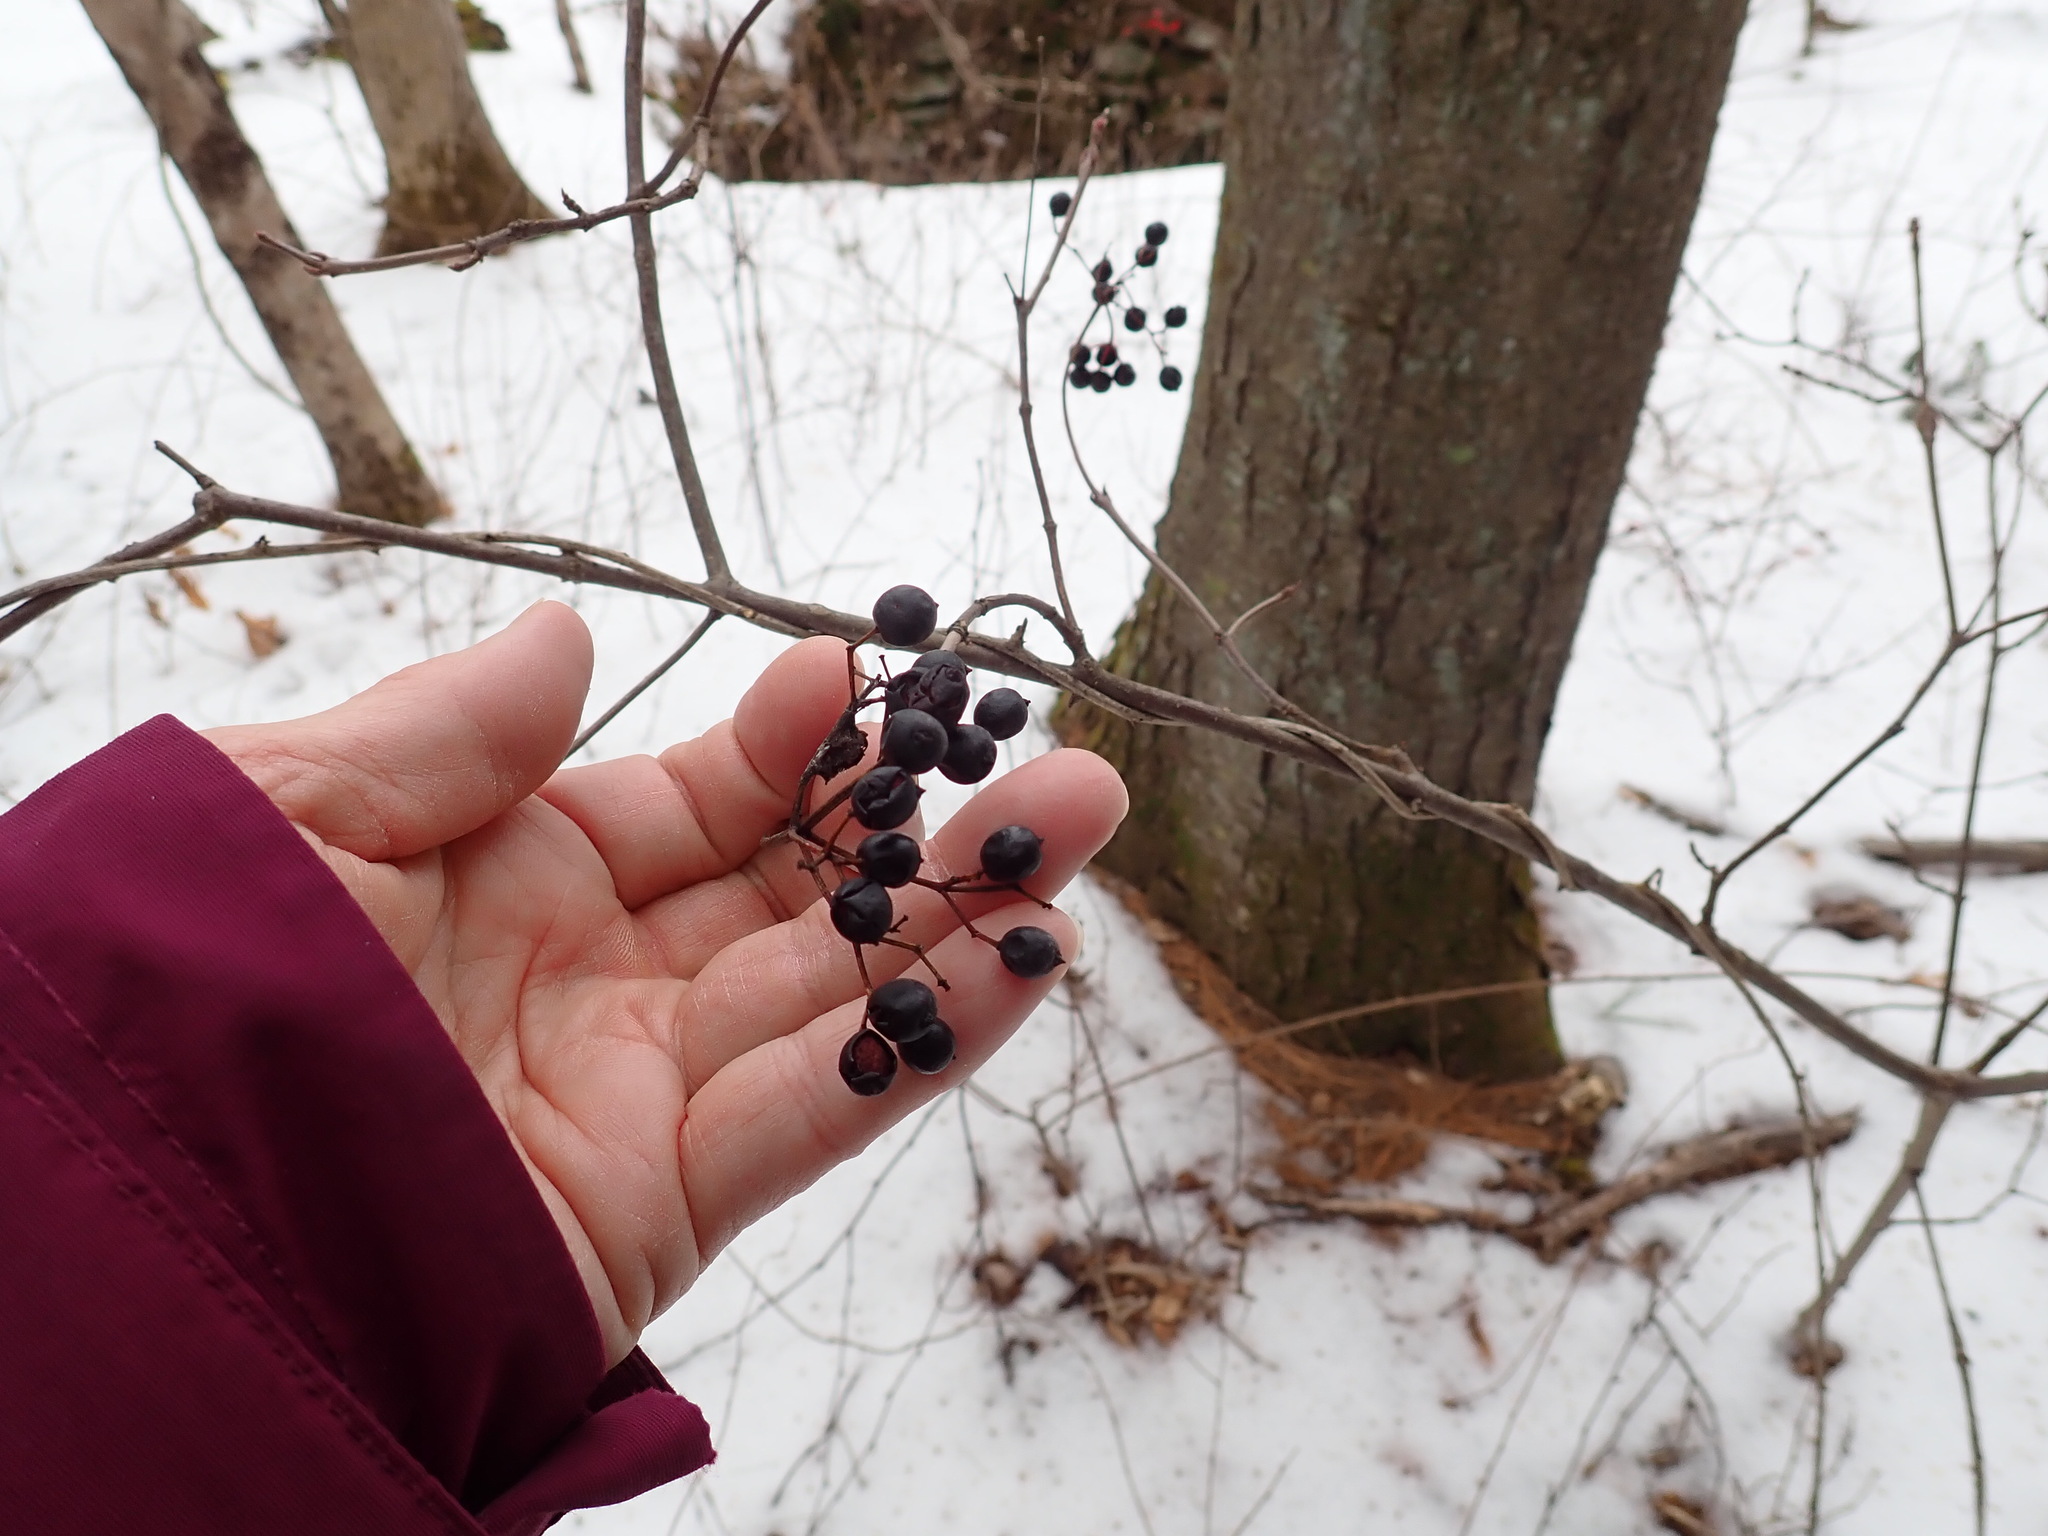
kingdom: Plantae
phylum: Tracheophyta
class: Magnoliopsida
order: Dipsacales
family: Viburnaceae
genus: Viburnum
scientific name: Viburnum acerifolium
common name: Dockmackie
